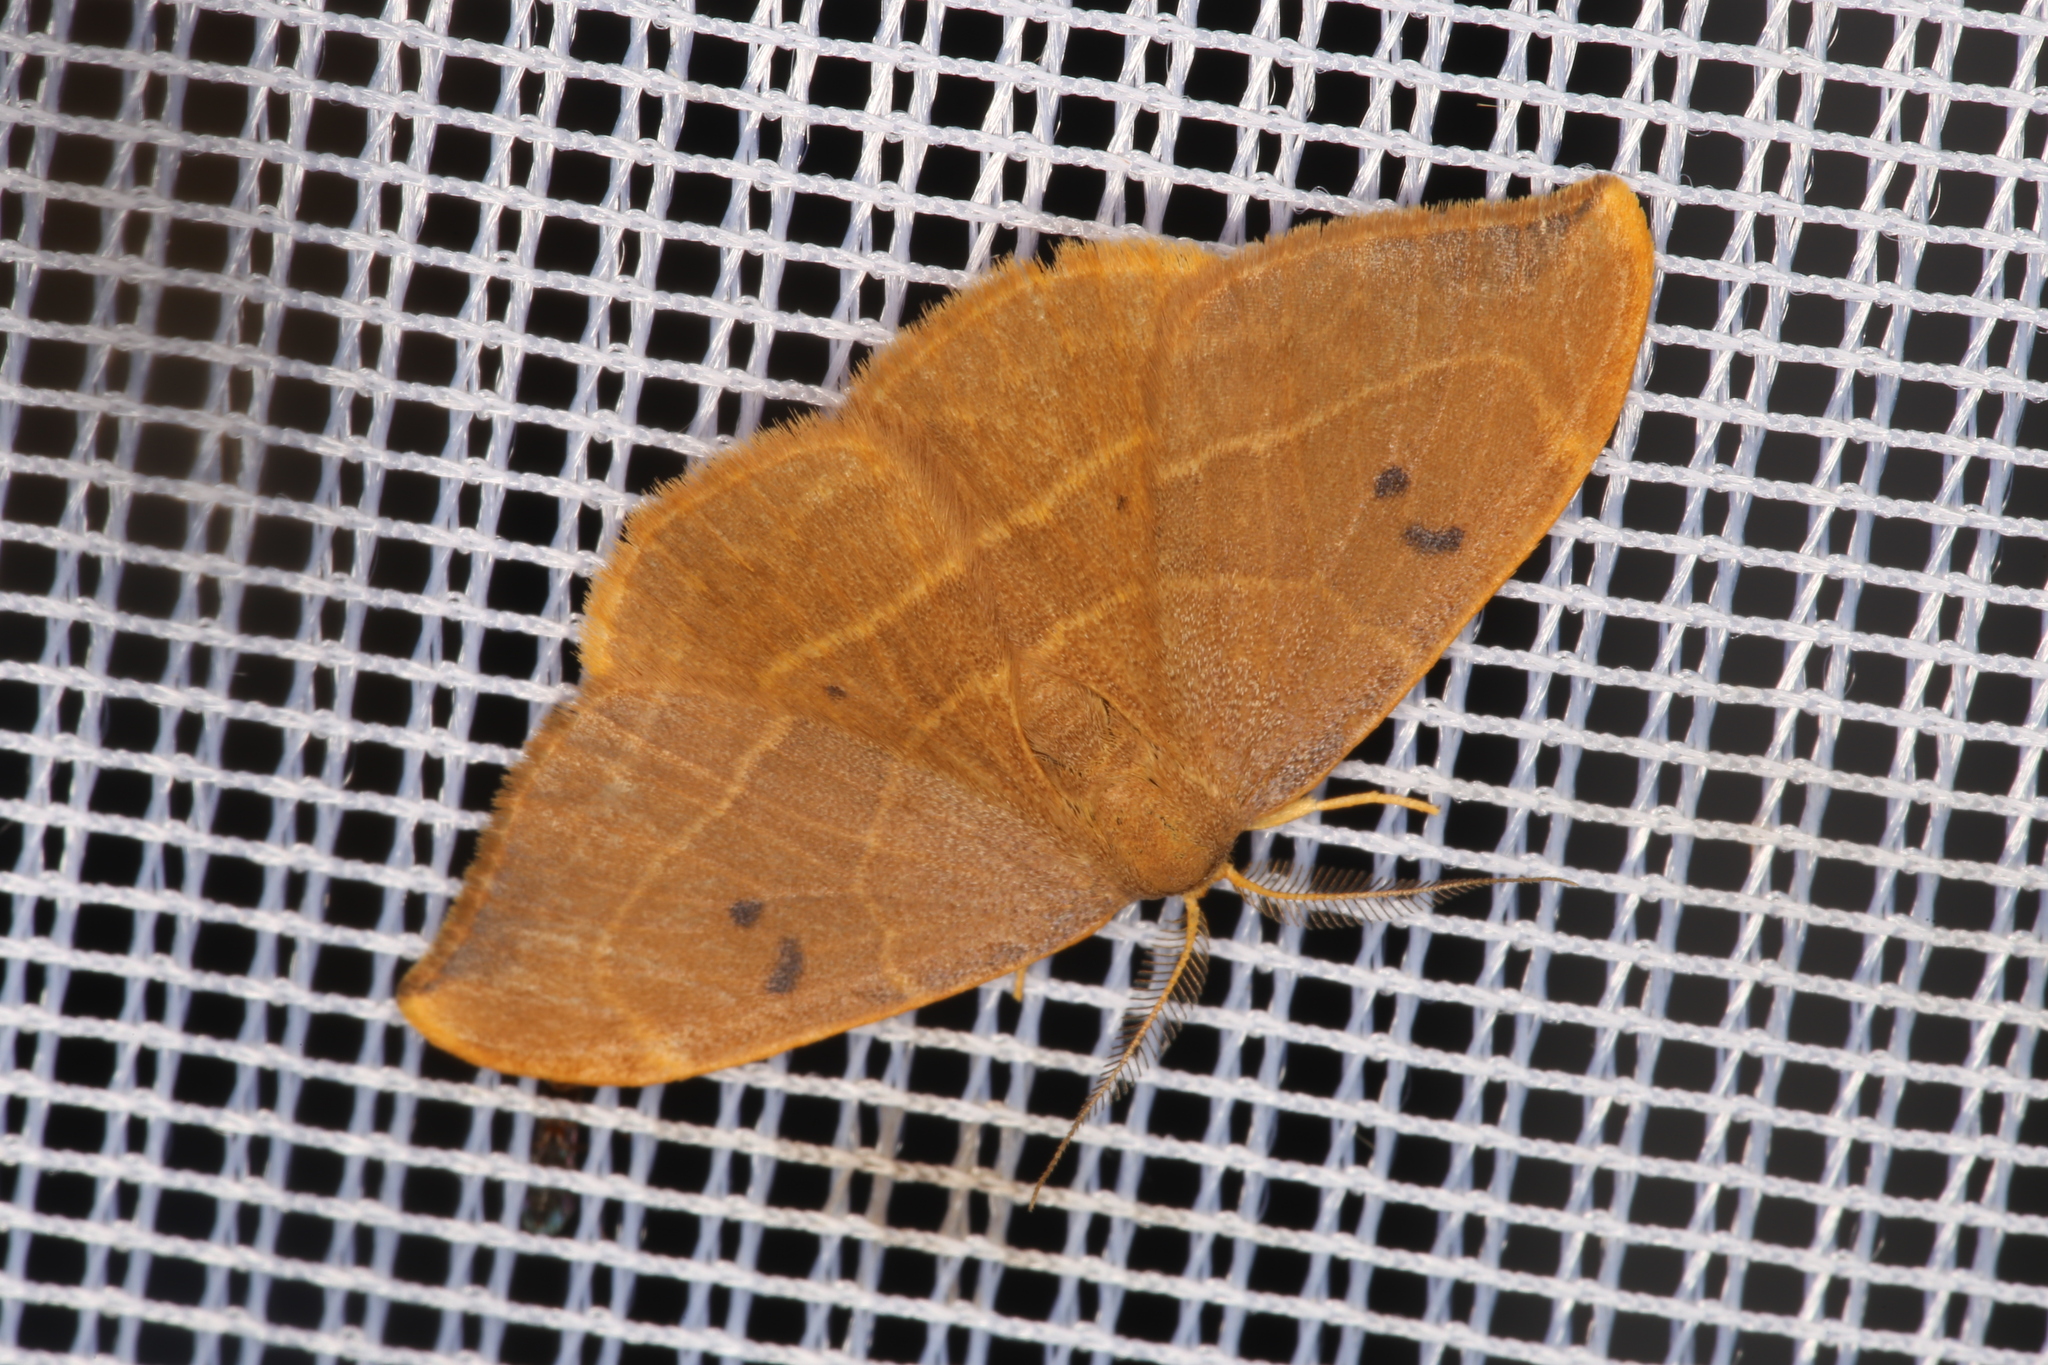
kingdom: Animalia
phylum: Arthropoda
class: Insecta
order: Lepidoptera
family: Drepanidae
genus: Watsonalla
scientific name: Watsonalla binaria
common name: Oak hook-tip
